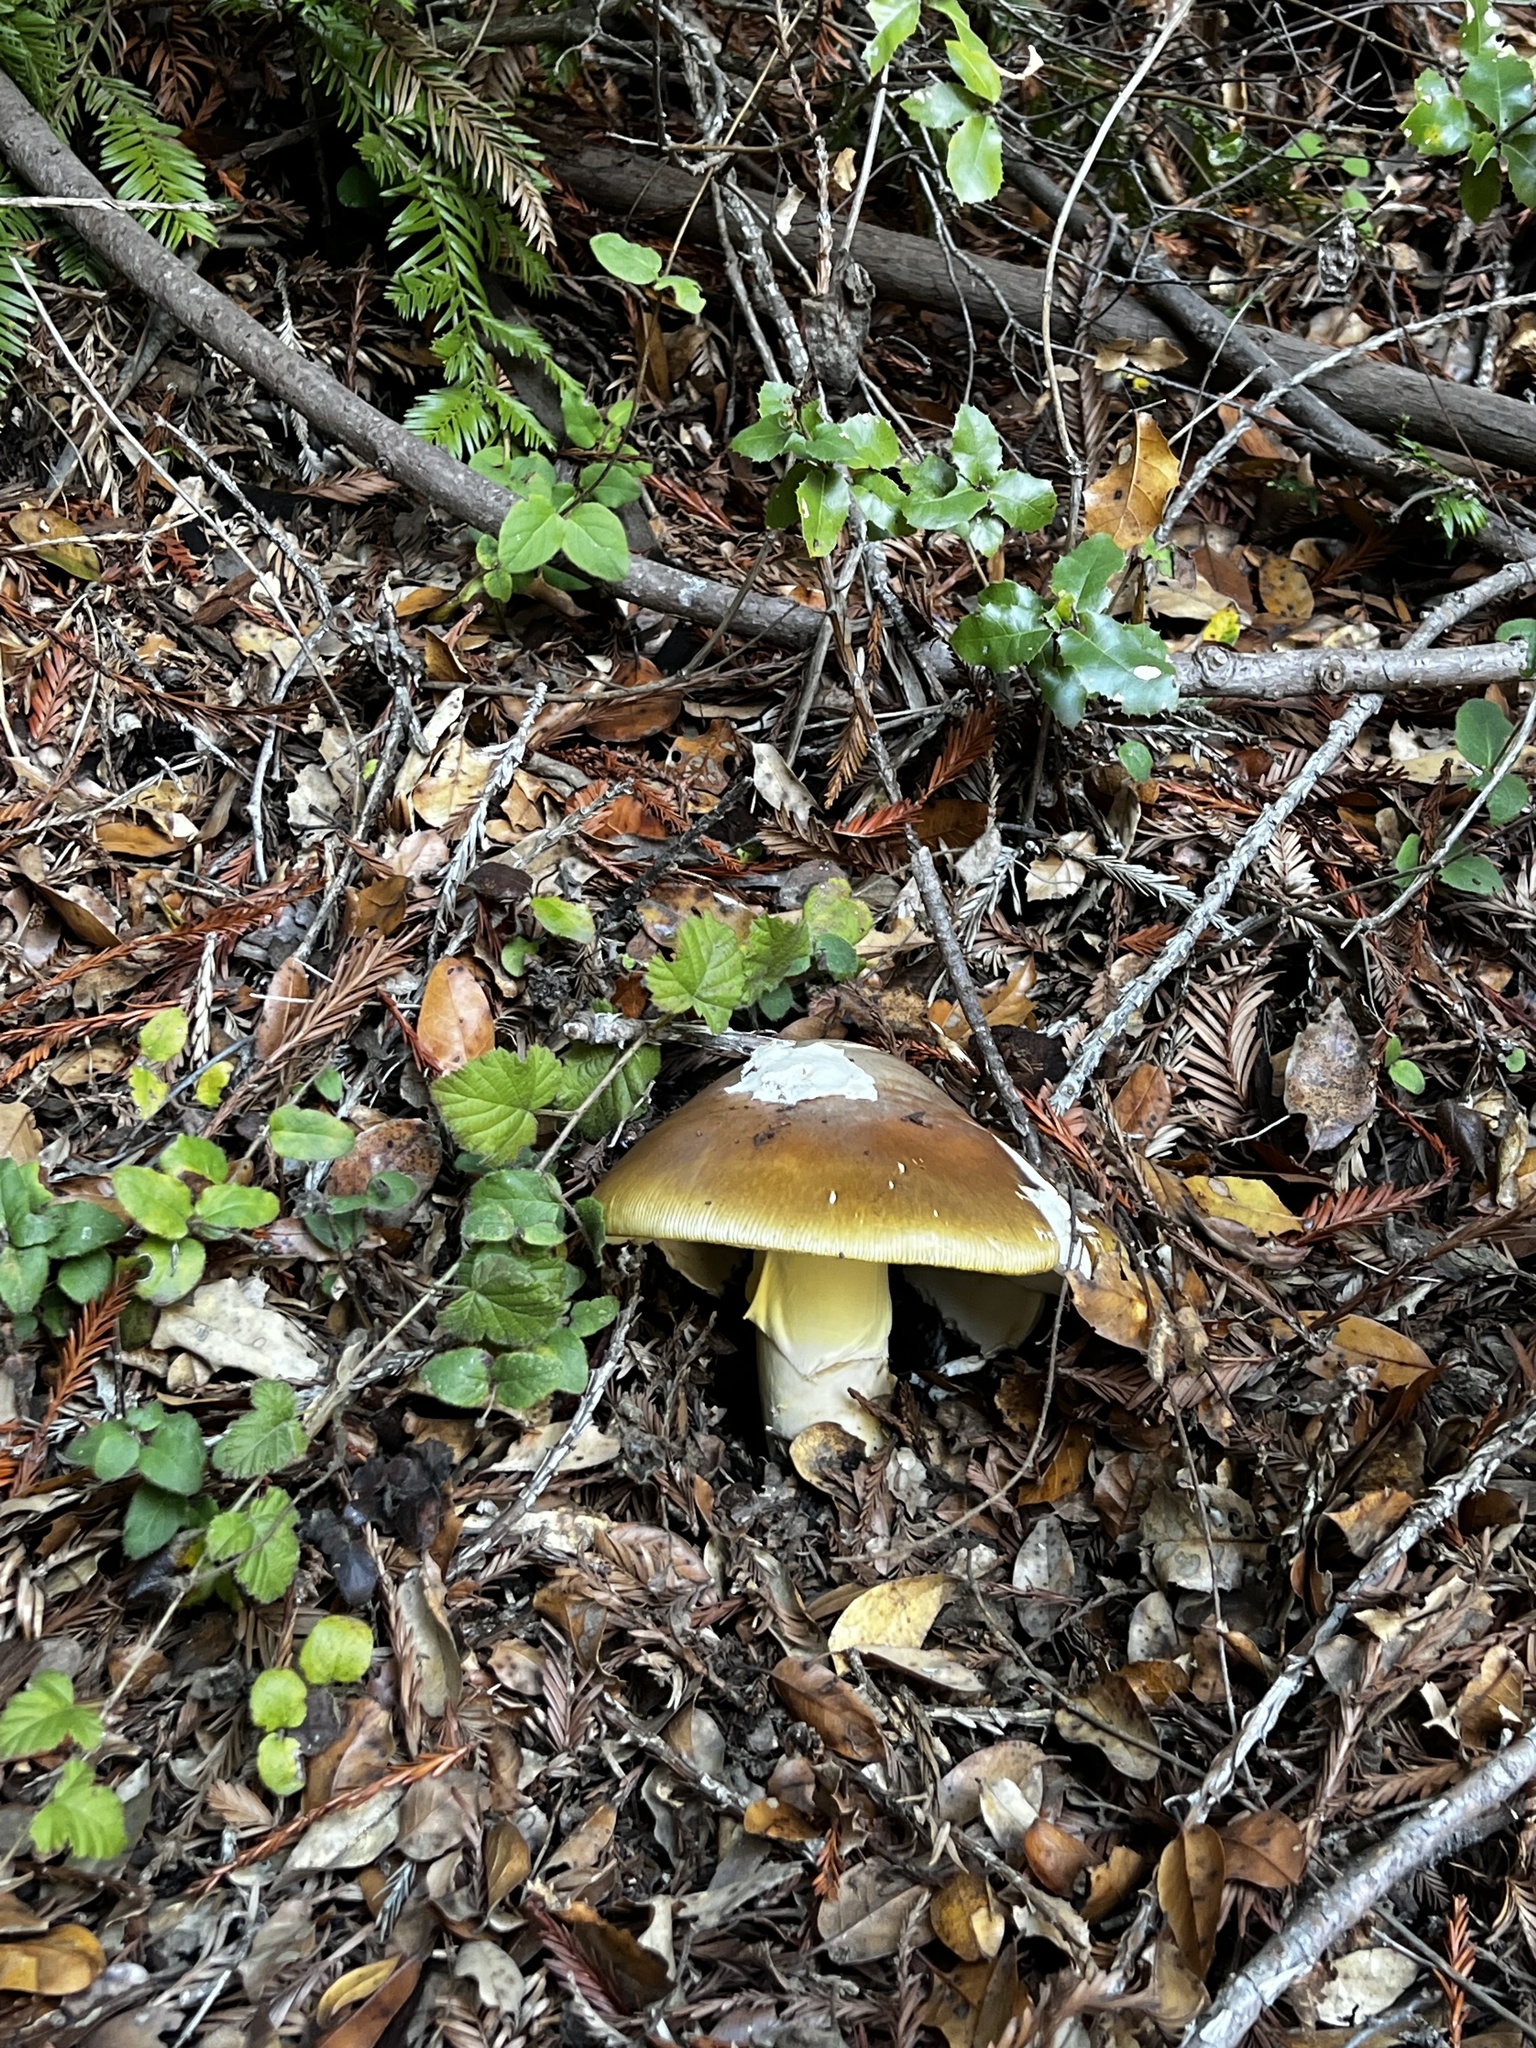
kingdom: Fungi
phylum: Basidiomycota
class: Agaricomycetes
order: Agaricales
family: Amanitaceae
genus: Amanita
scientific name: Amanita calyptroderma
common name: Coccora
